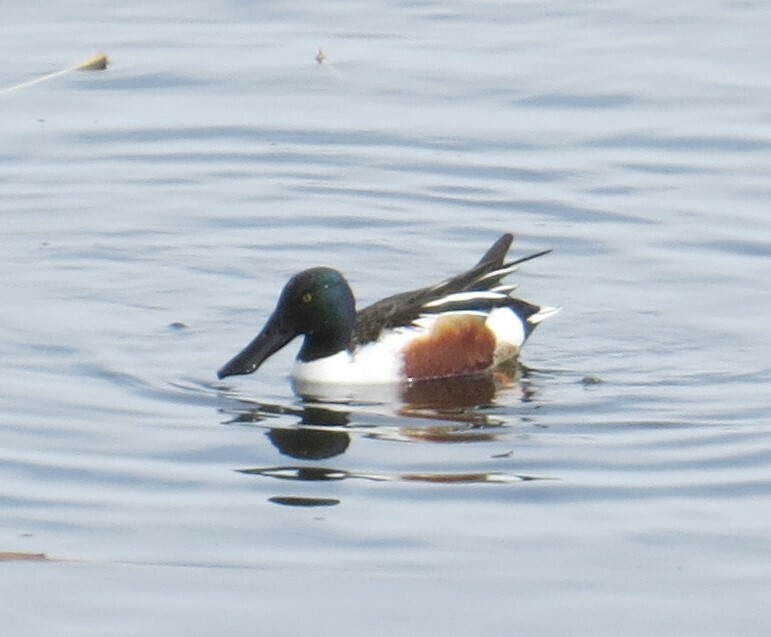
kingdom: Animalia
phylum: Chordata
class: Aves
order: Anseriformes
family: Anatidae
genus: Spatula
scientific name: Spatula clypeata
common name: Northern shoveler
